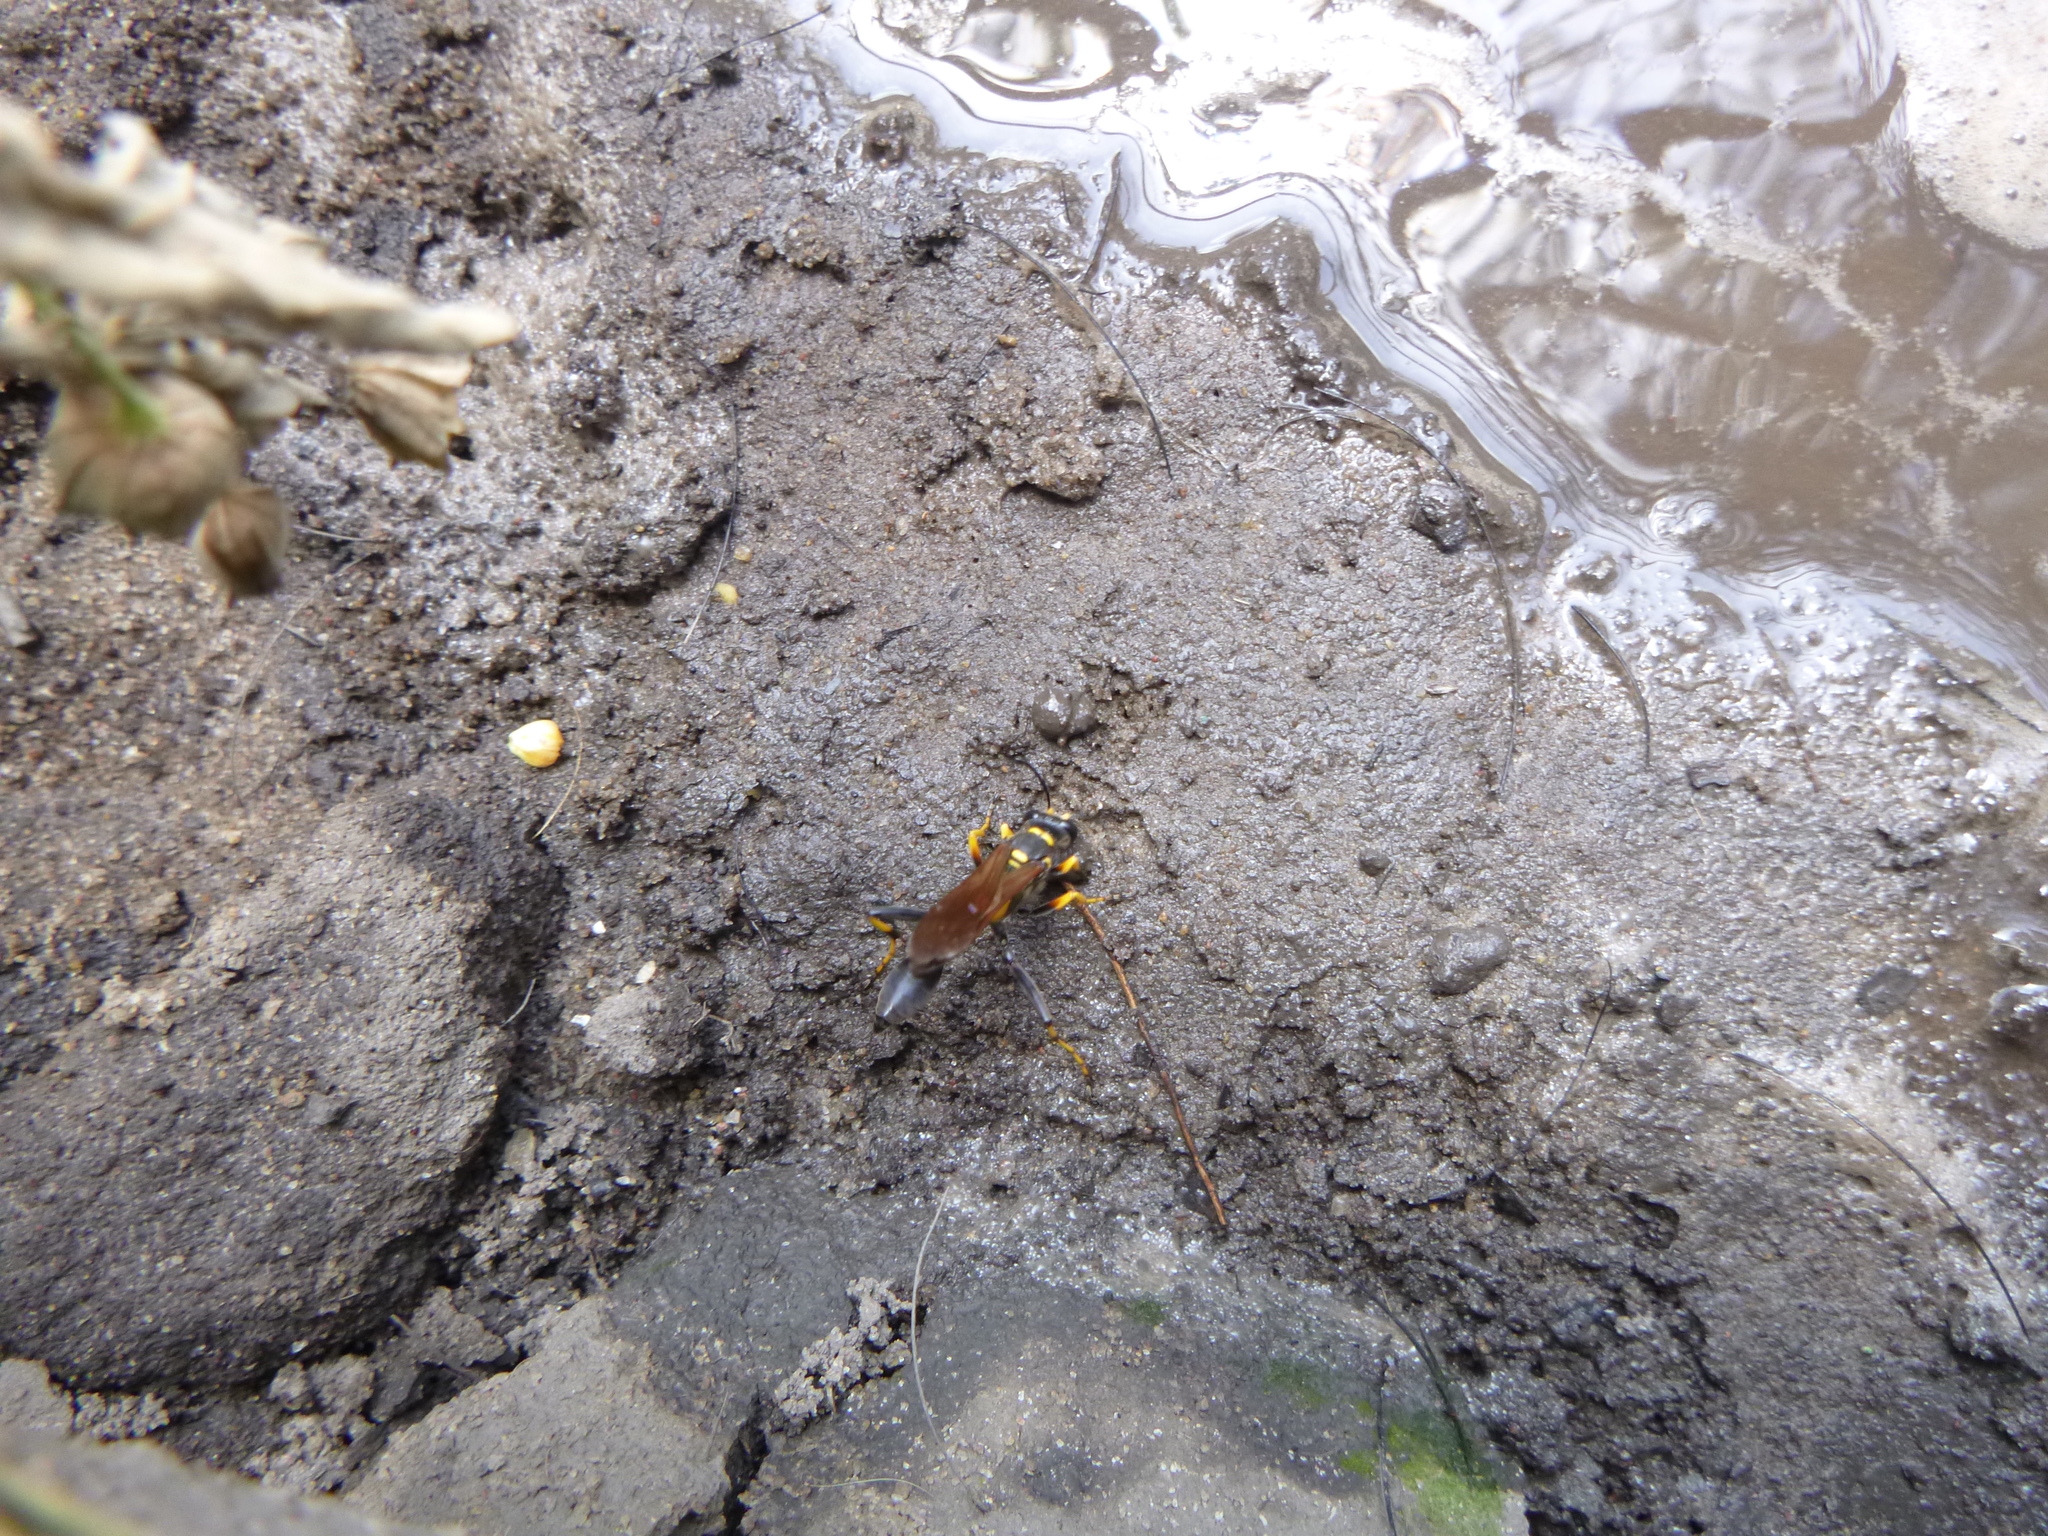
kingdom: Animalia
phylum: Arthropoda
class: Insecta
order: Hymenoptera
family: Sphecidae
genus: Sceliphron
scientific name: Sceliphron caementarium
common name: Mud dauber
